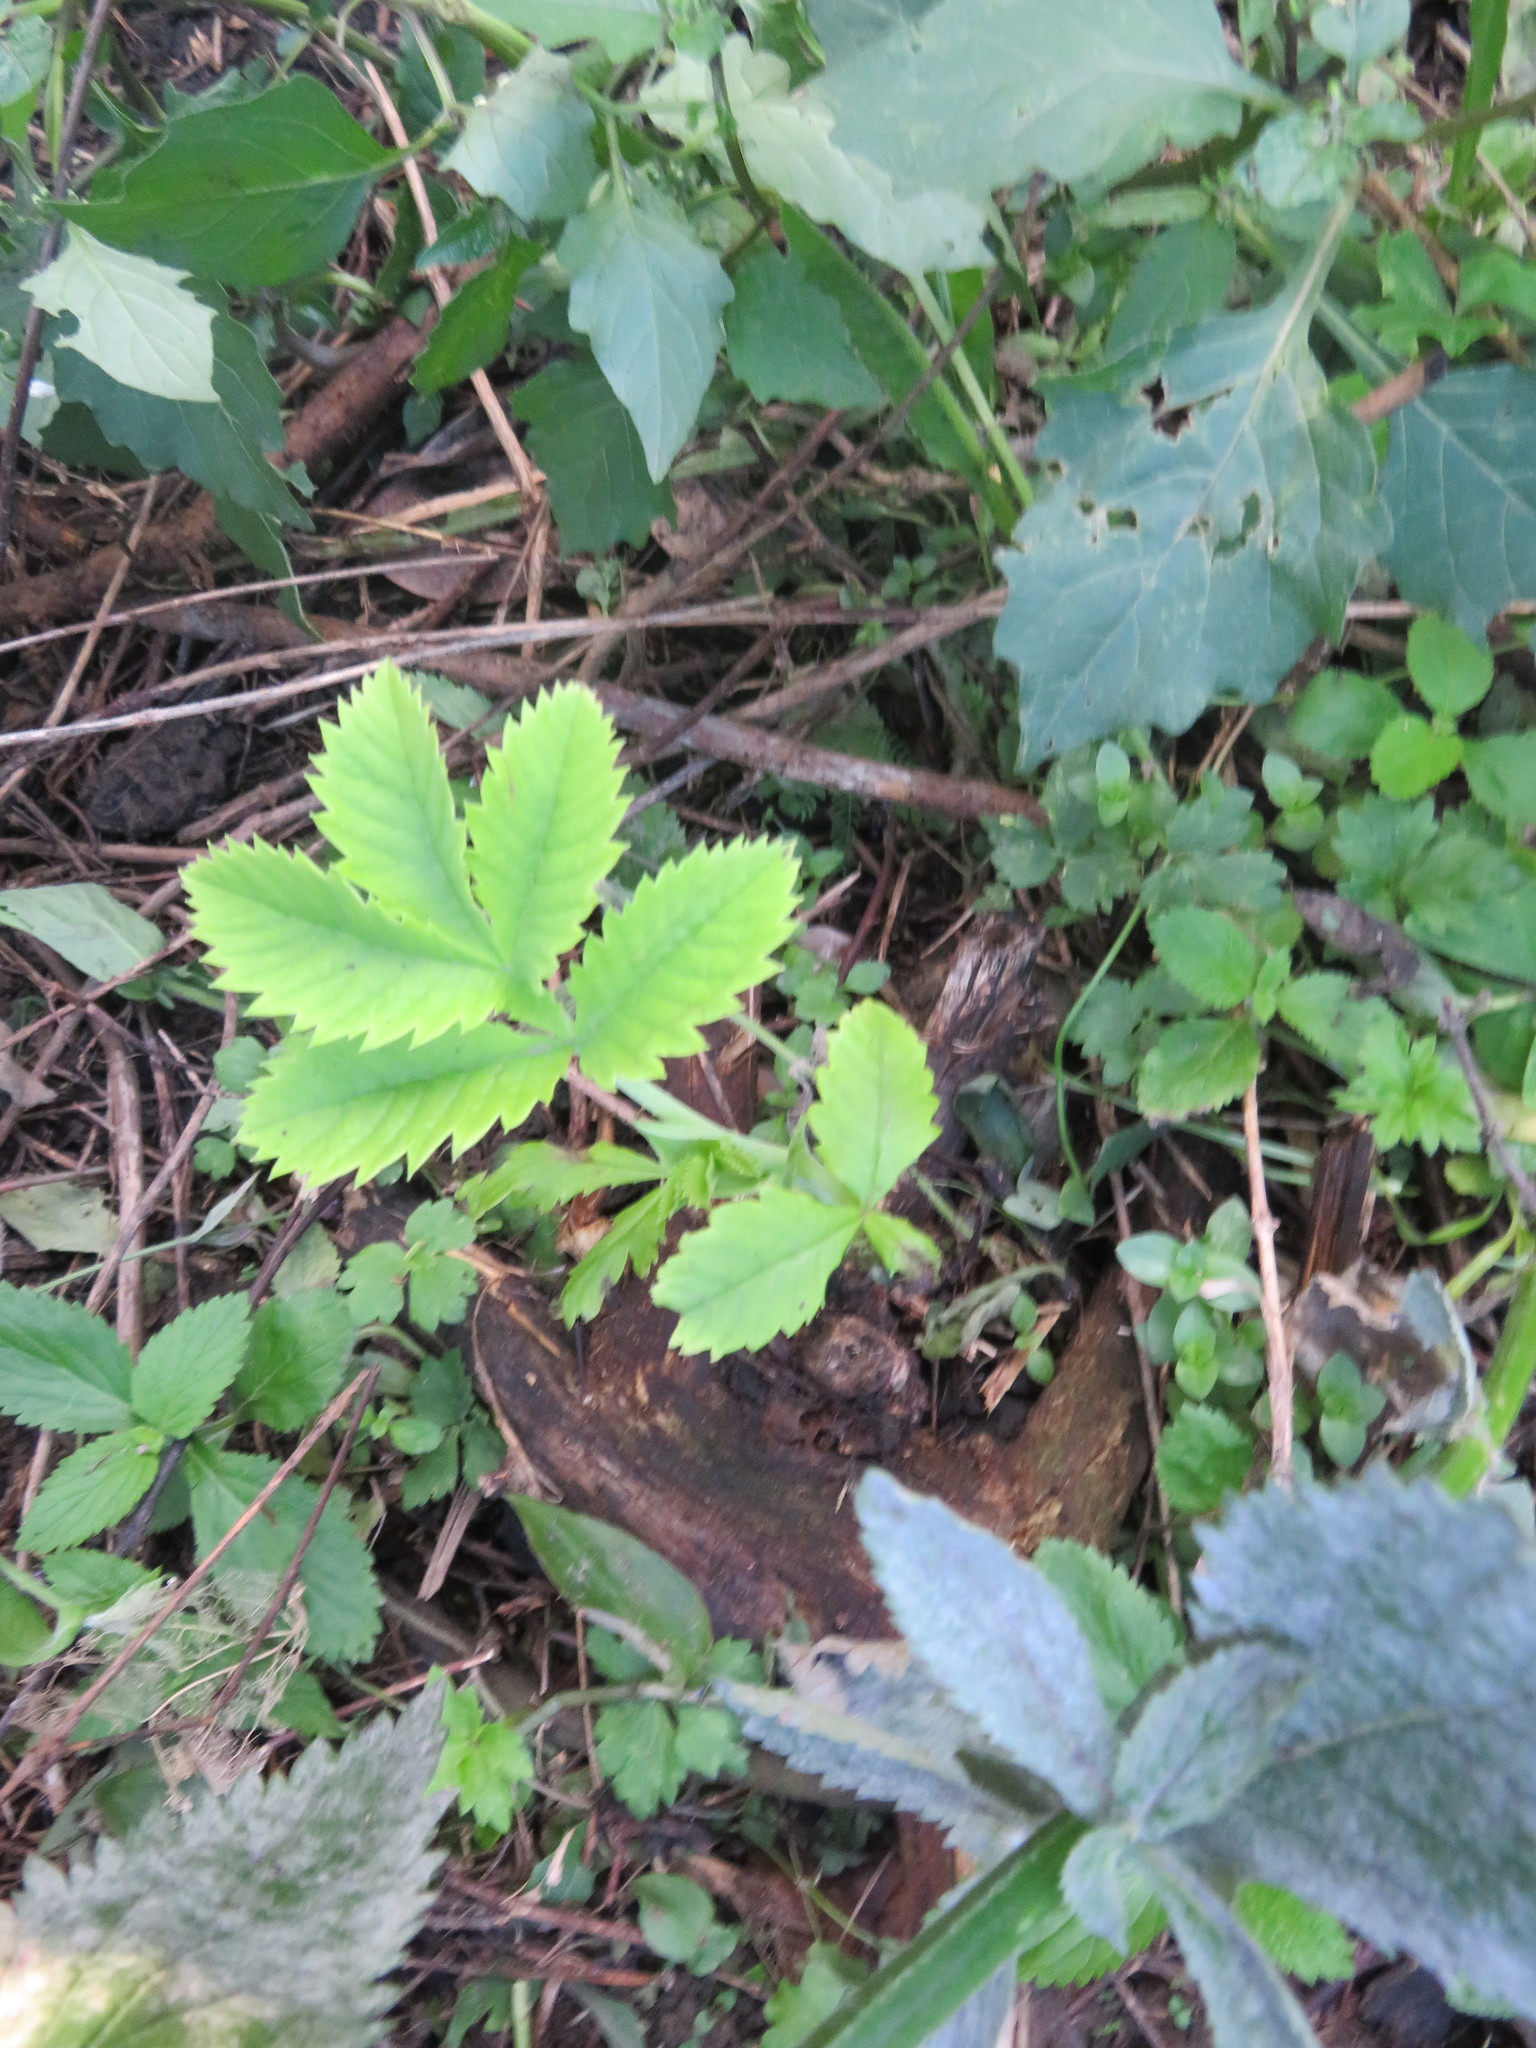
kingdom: Plantae
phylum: Tracheophyta
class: Magnoliopsida
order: Geraniales
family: Melianthaceae
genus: Melianthus
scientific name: Melianthus major
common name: Honey-flower
